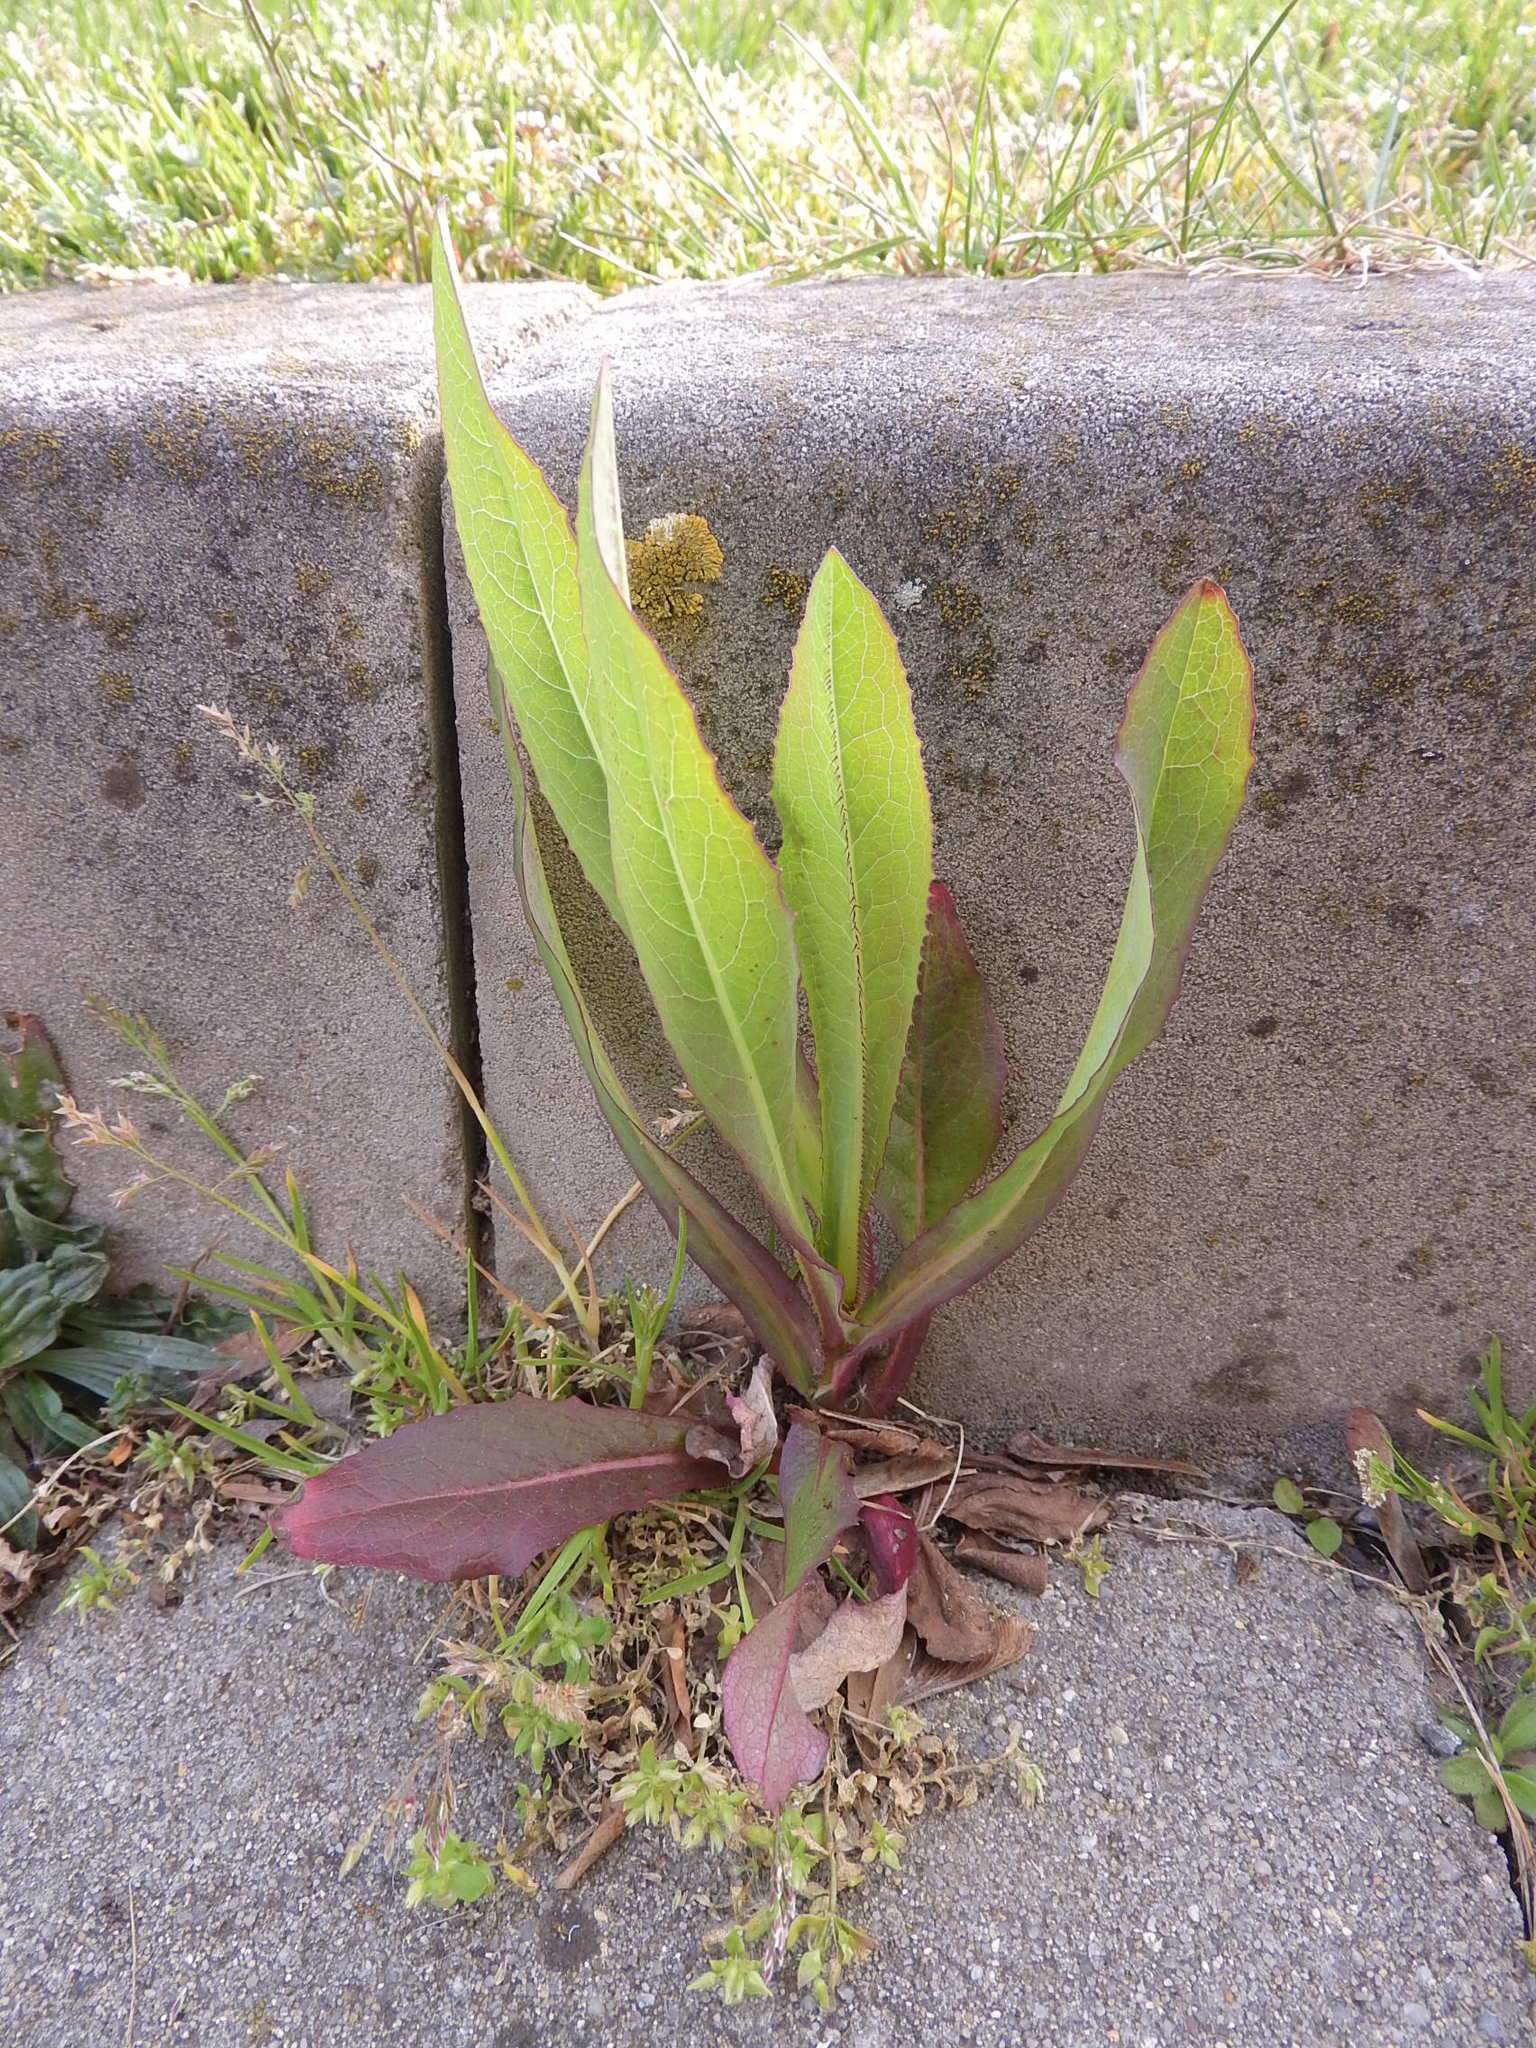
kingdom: Plantae
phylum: Tracheophyta
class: Magnoliopsida
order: Asterales
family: Asteraceae
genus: Lactuca
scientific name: Lactuca serriola
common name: Prickly lettuce
